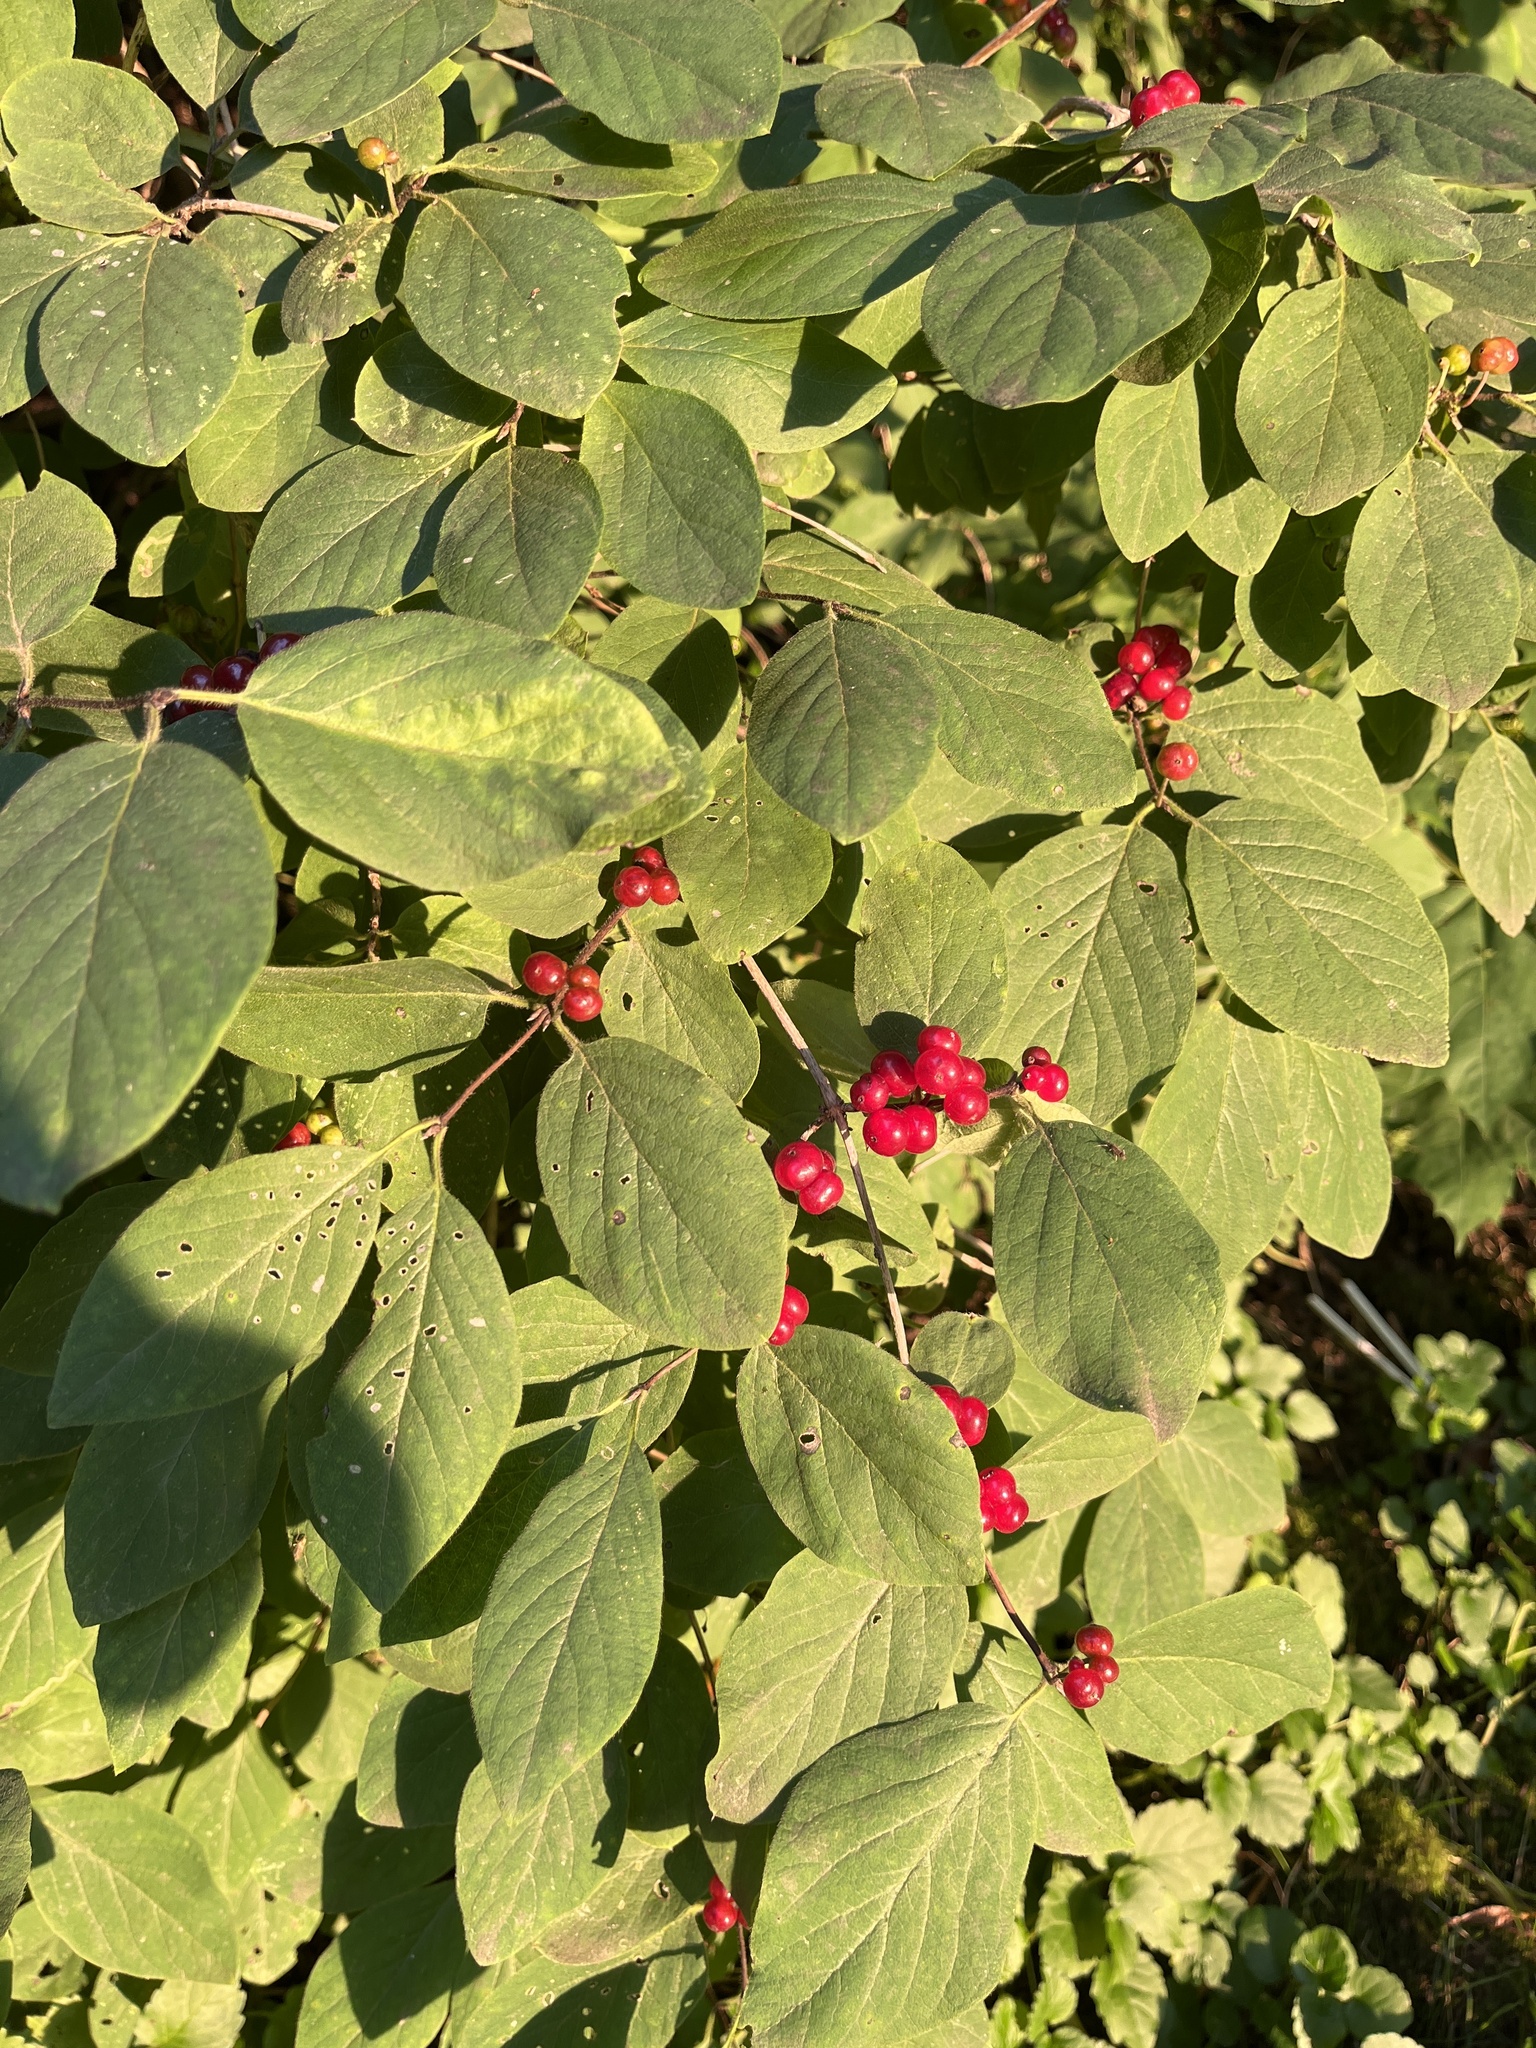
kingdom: Plantae
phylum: Tracheophyta
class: Magnoliopsida
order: Dipsacales
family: Caprifoliaceae
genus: Lonicera
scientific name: Lonicera xylosteum
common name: Fly honeysuckle
